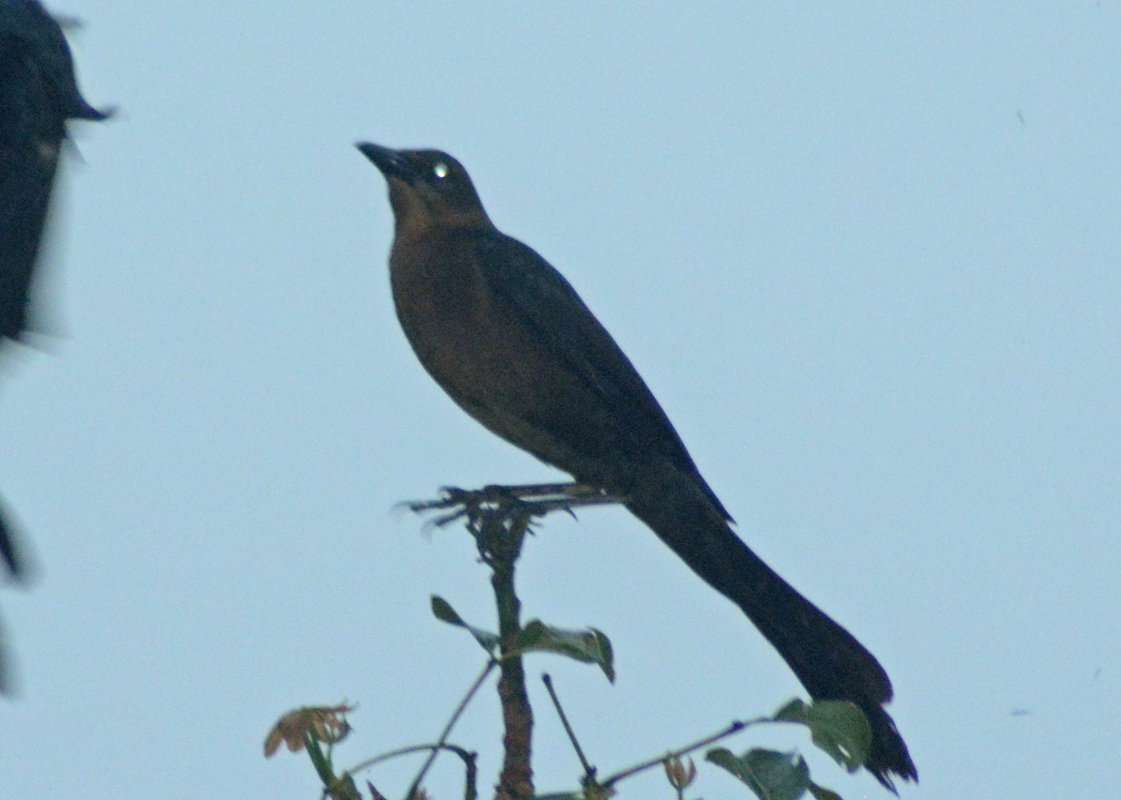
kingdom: Animalia
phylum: Chordata
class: Aves
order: Passeriformes
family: Icteridae
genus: Quiscalus
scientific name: Quiscalus mexicanus
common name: Great-tailed grackle
